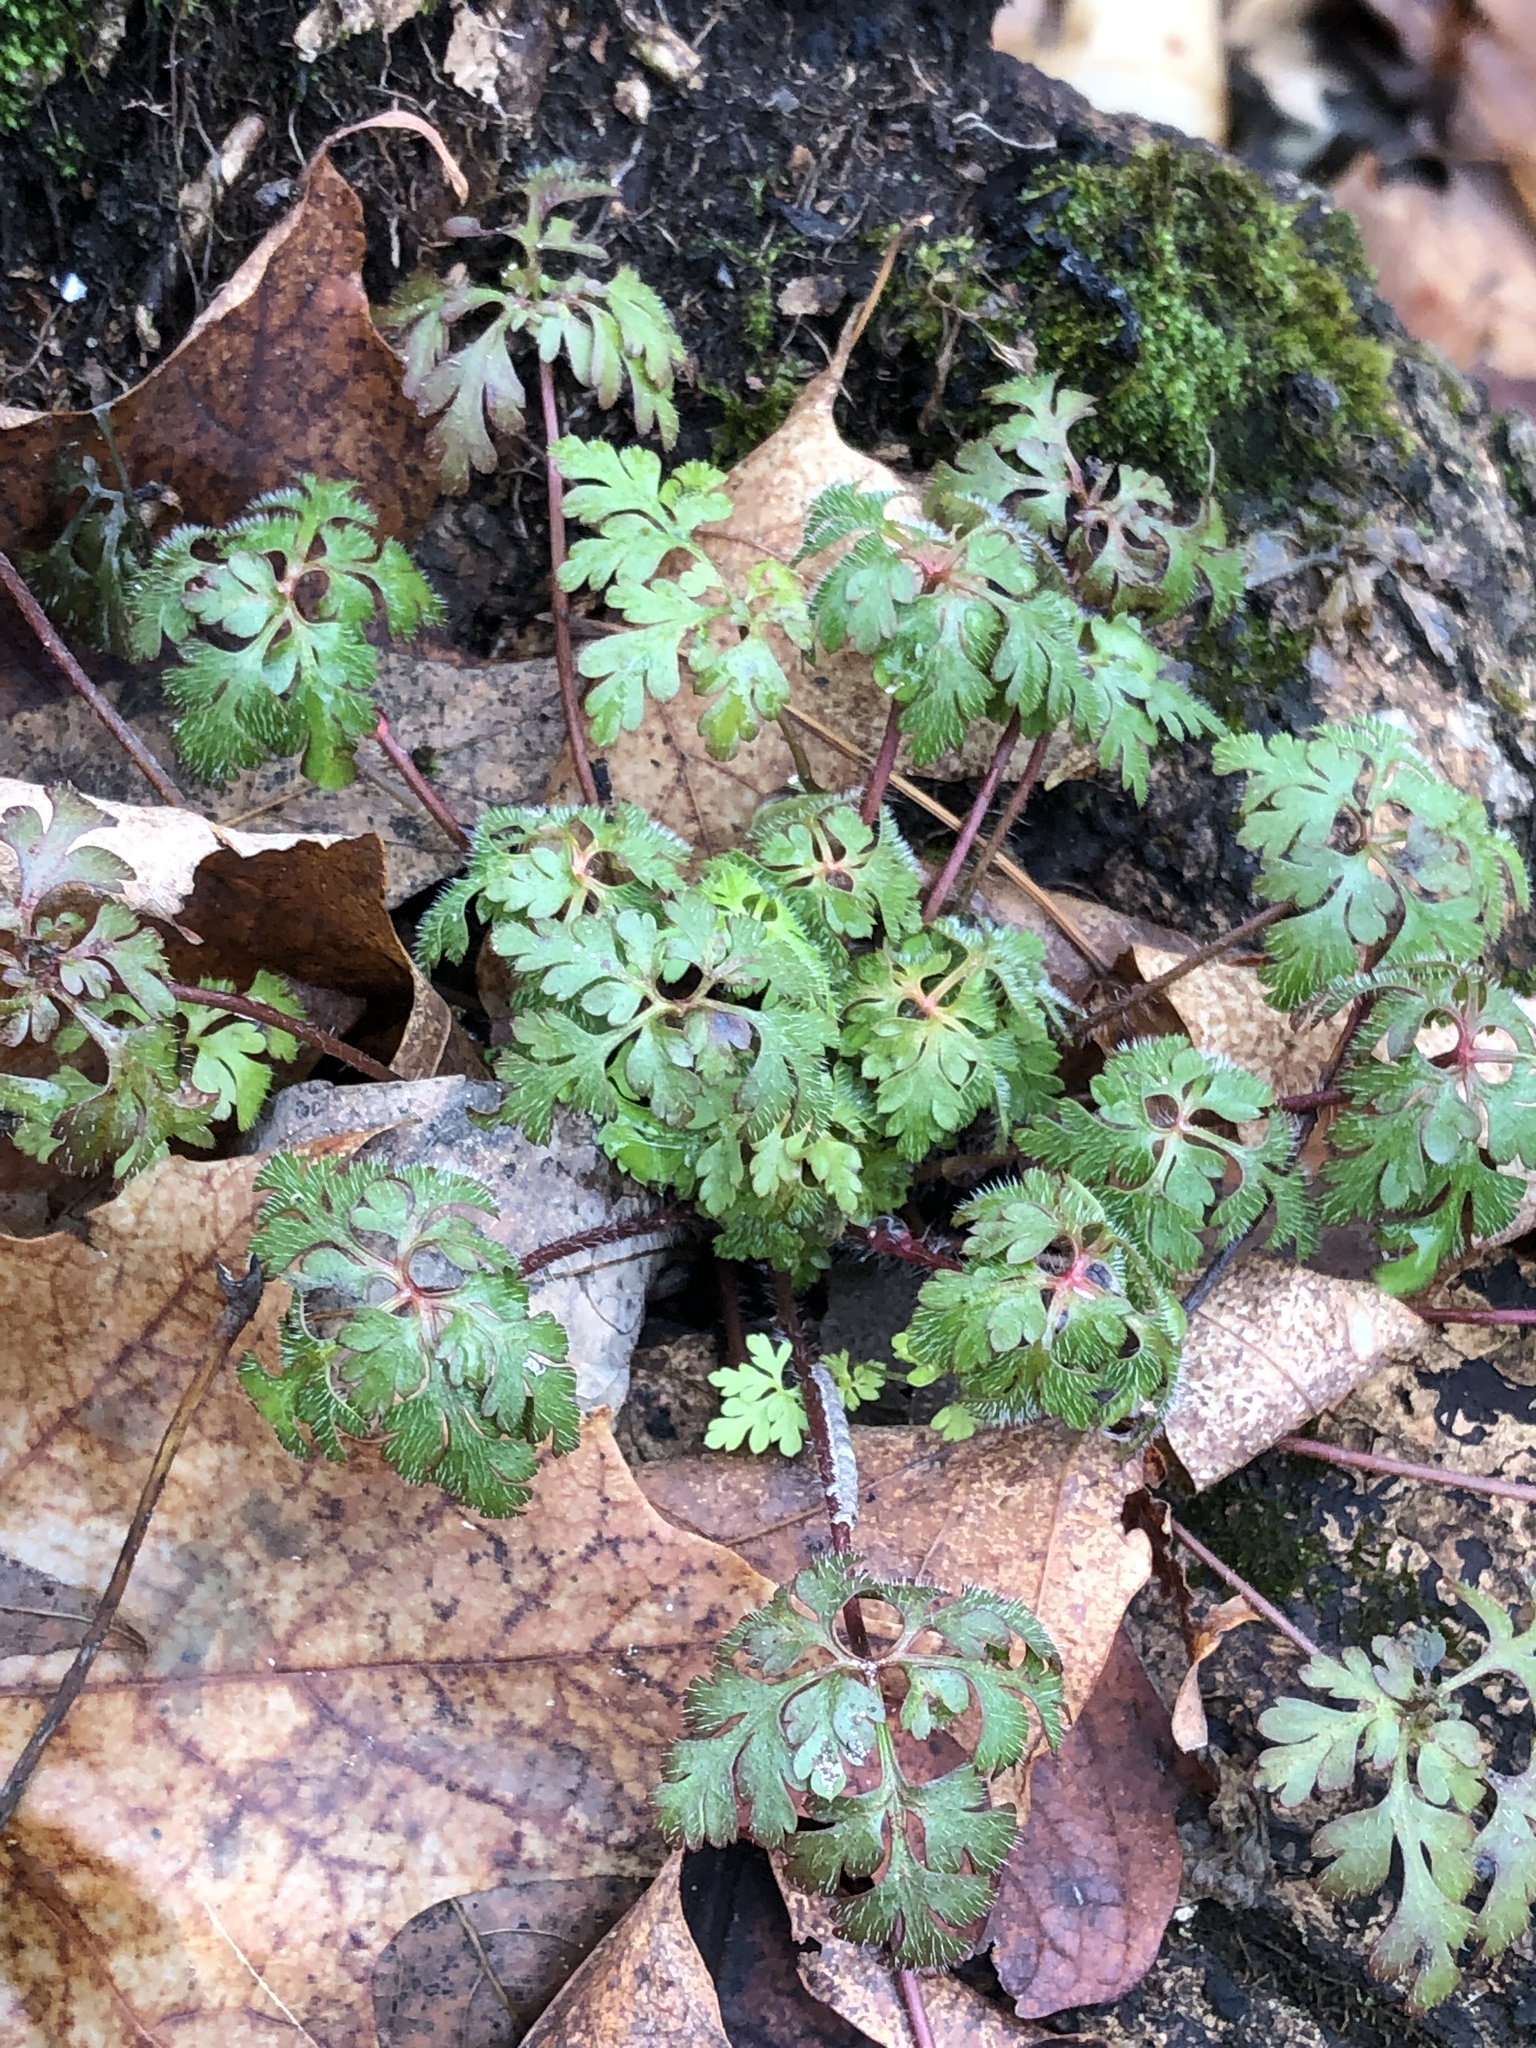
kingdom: Plantae
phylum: Tracheophyta
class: Magnoliopsida
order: Geraniales
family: Geraniaceae
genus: Geranium
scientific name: Geranium robertianum
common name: Herb-robert
